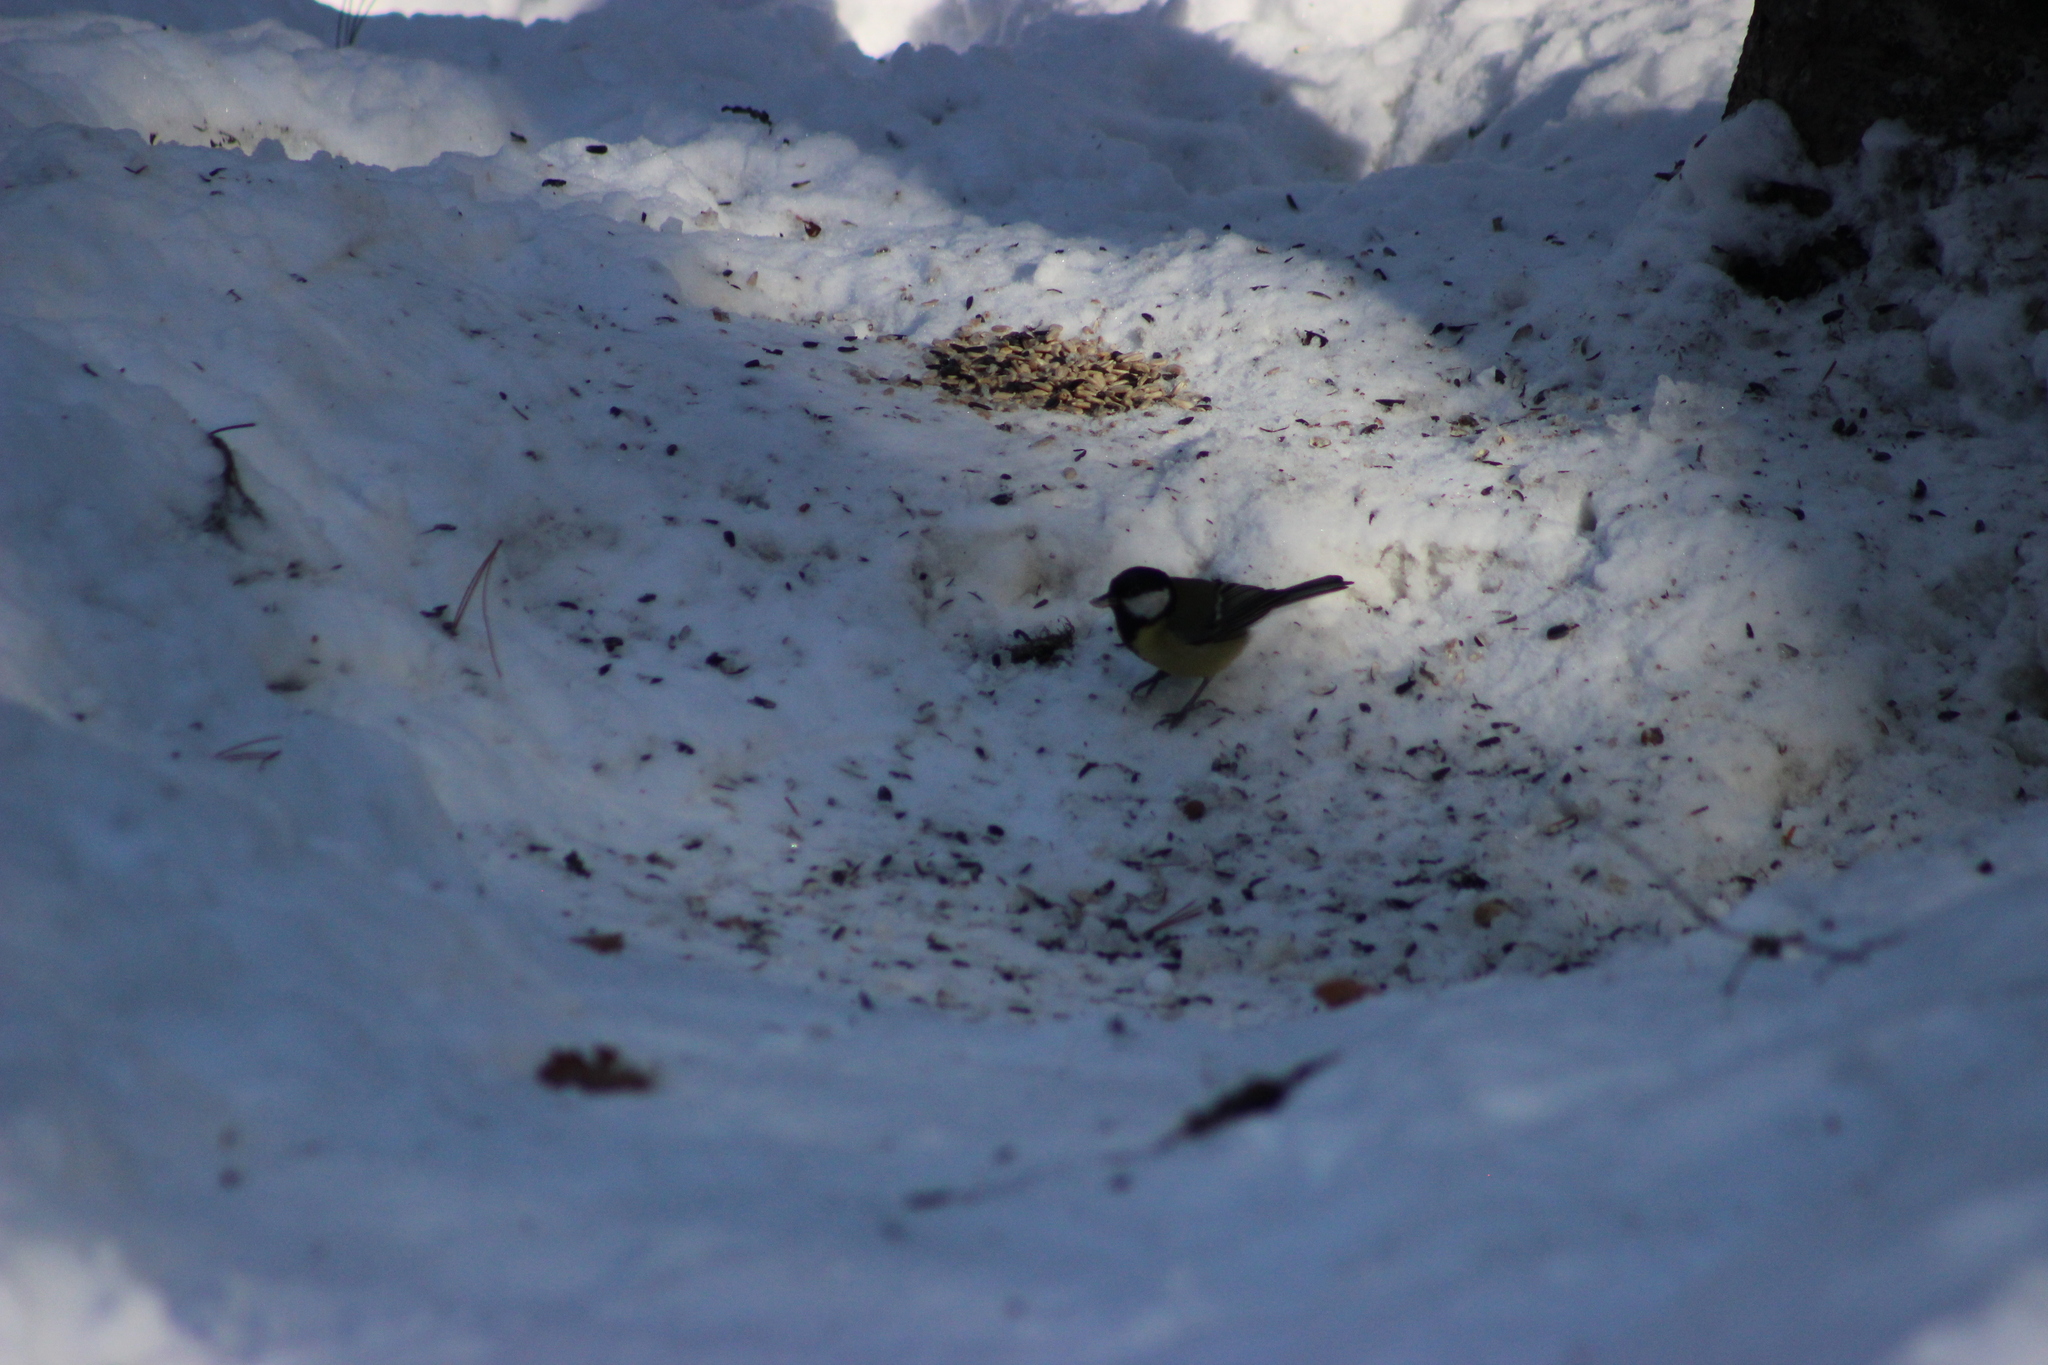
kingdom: Animalia
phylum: Chordata
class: Aves
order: Passeriformes
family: Paridae
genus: Parus
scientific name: Parus major
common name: Great tit
